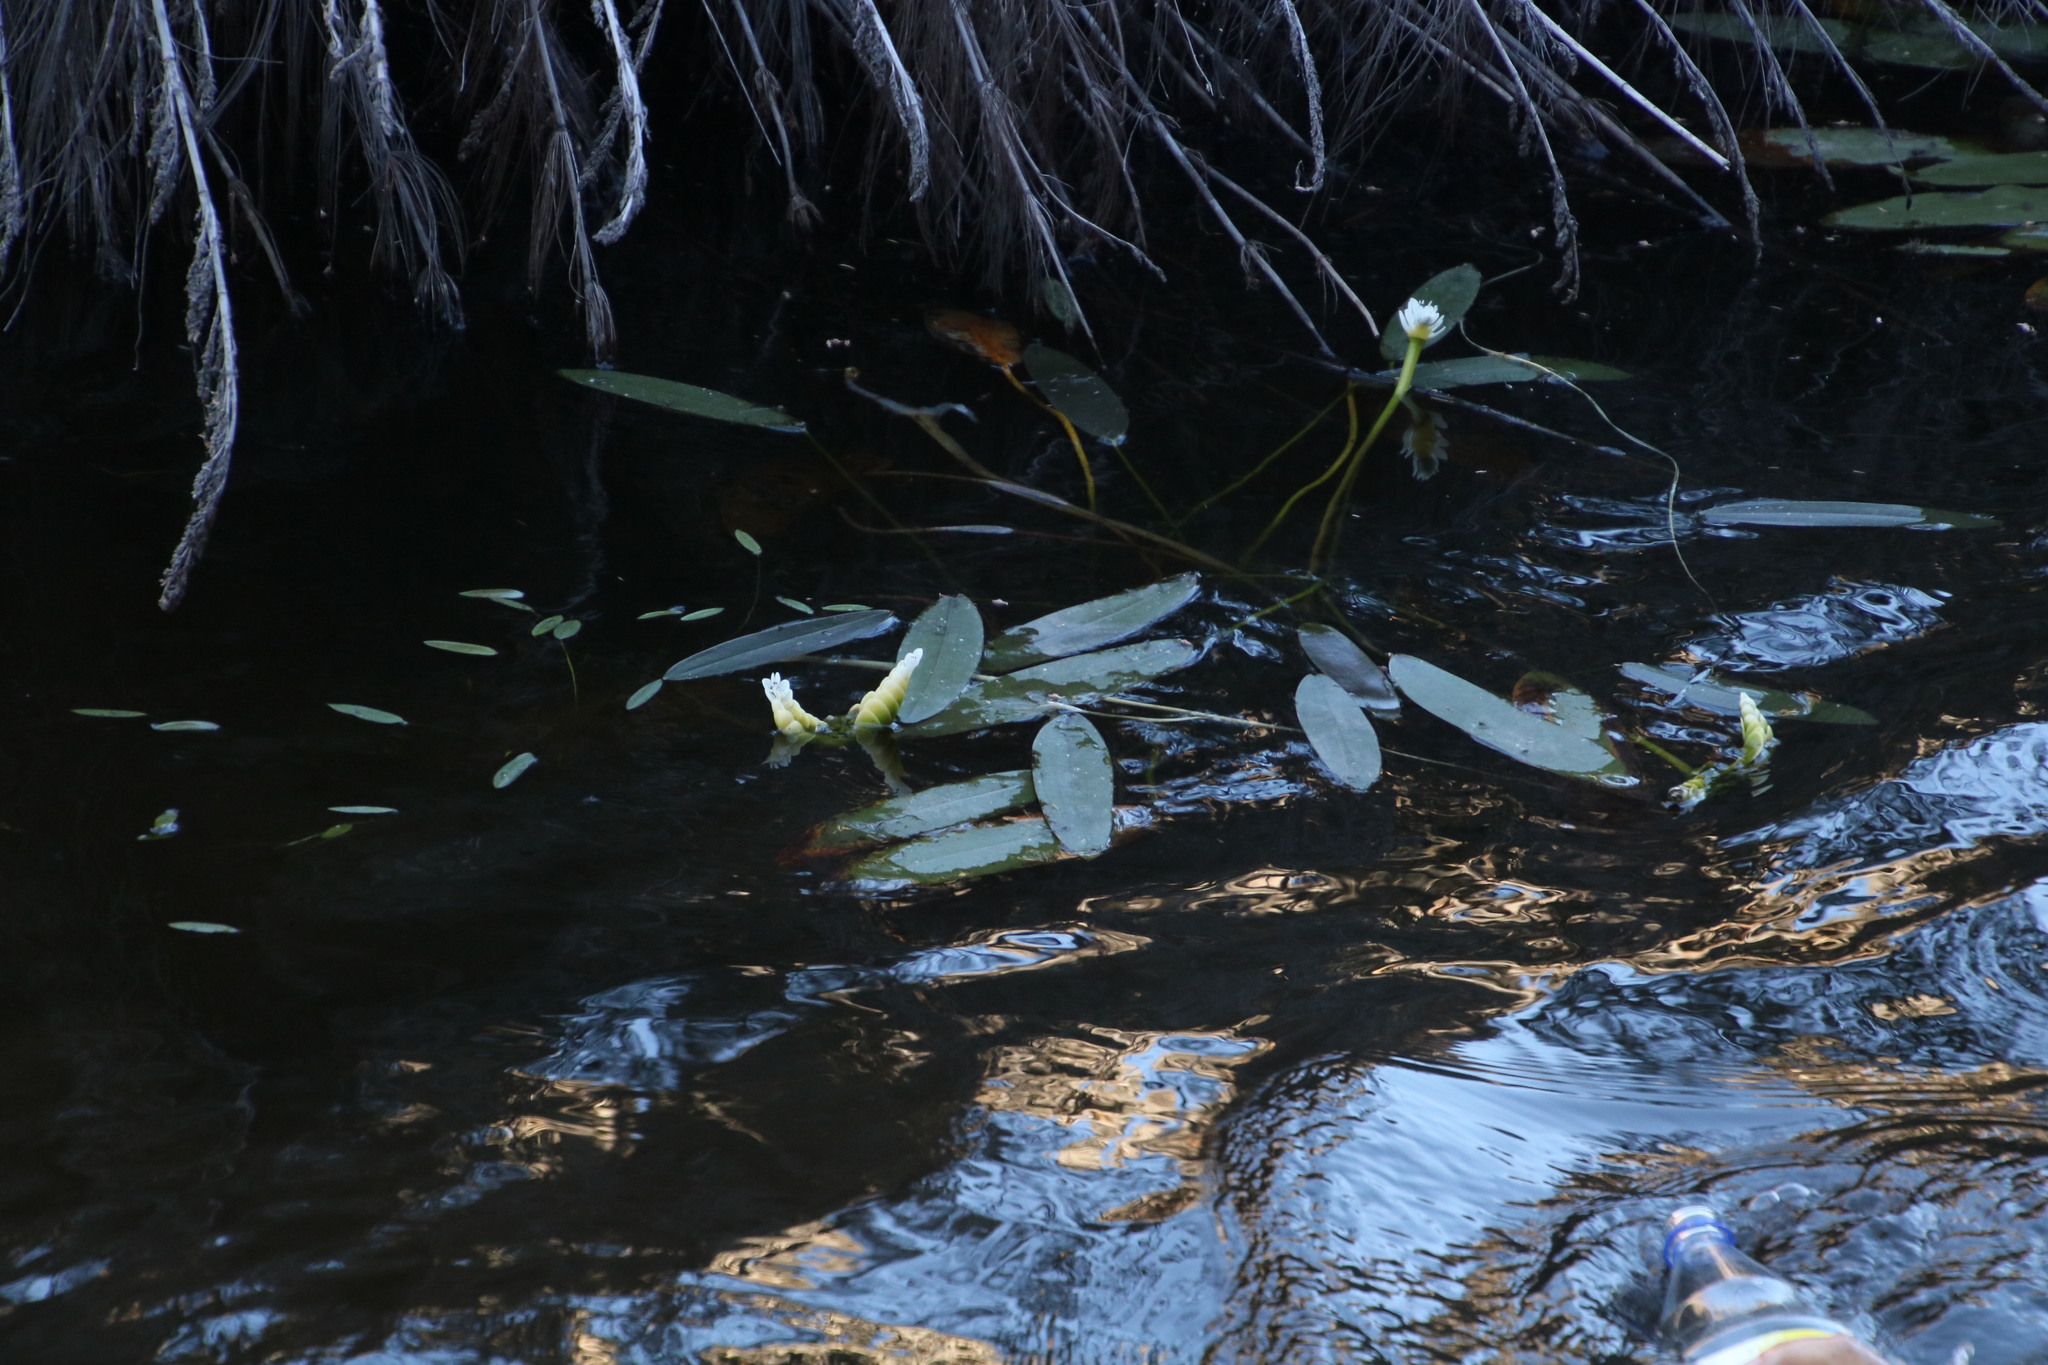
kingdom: Plantae
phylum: Tracheophyta
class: Liliopsida
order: Alismatales
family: Aponogetonaceae
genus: Aponogeton
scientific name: Aponogeton distachyos
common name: Cape-pondweed
